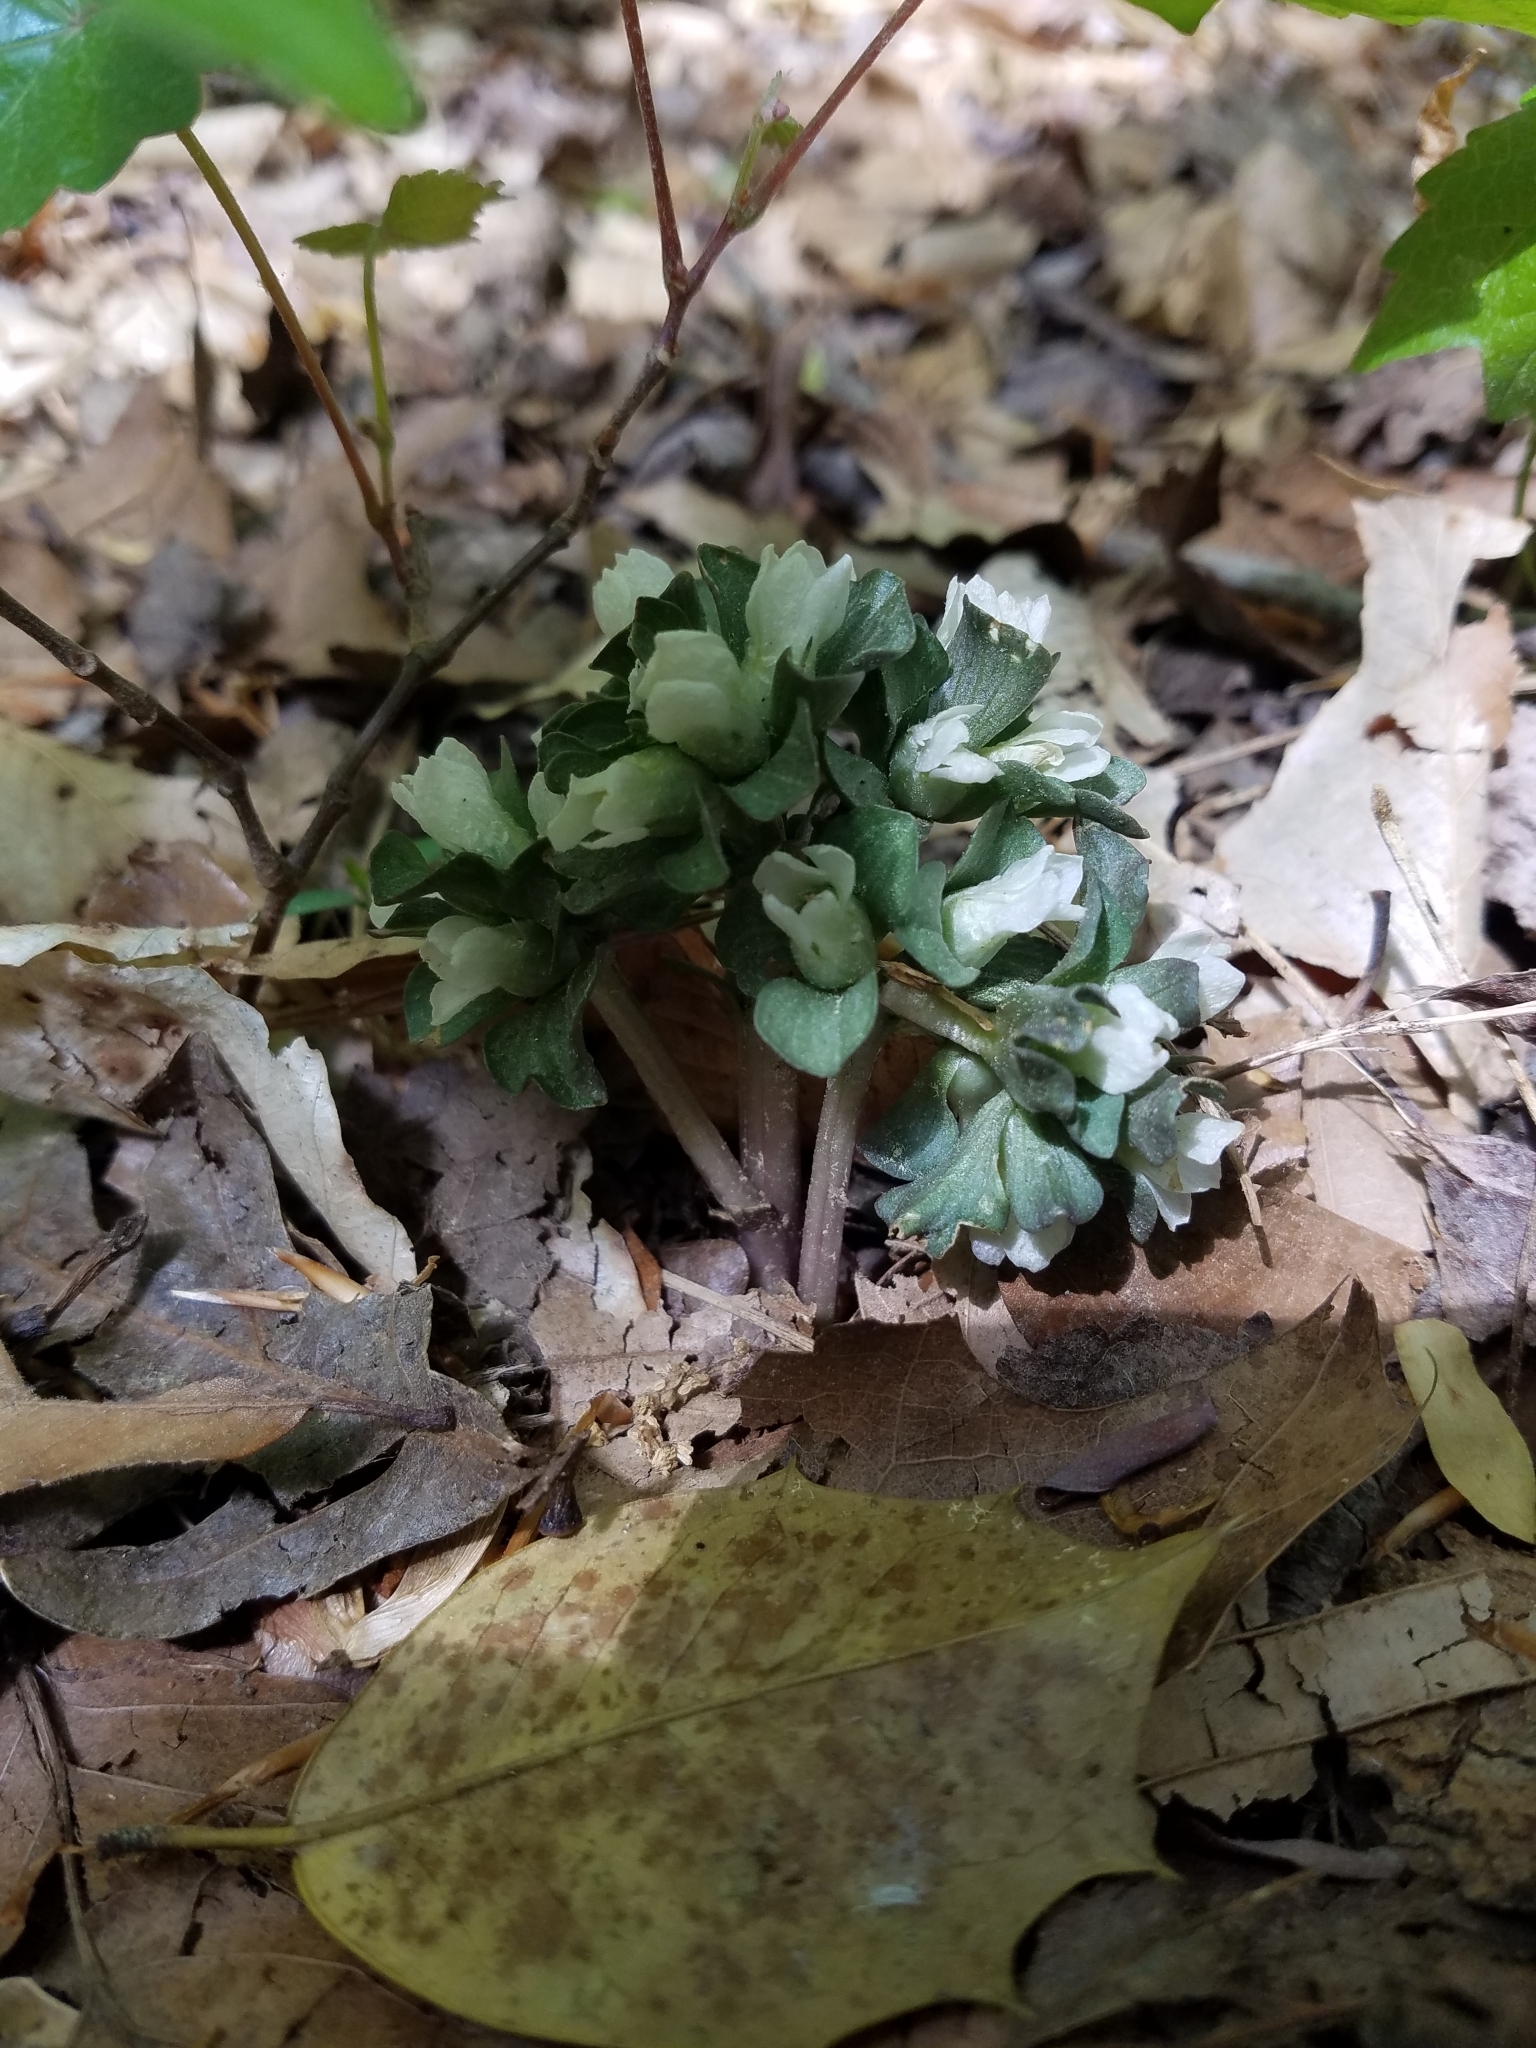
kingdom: Plantae
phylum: Tracheophyta
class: Magnoliopsida
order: Gentianales
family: Gentianaceae
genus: Obolaria
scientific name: Obolaria virginica
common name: Pennywort
